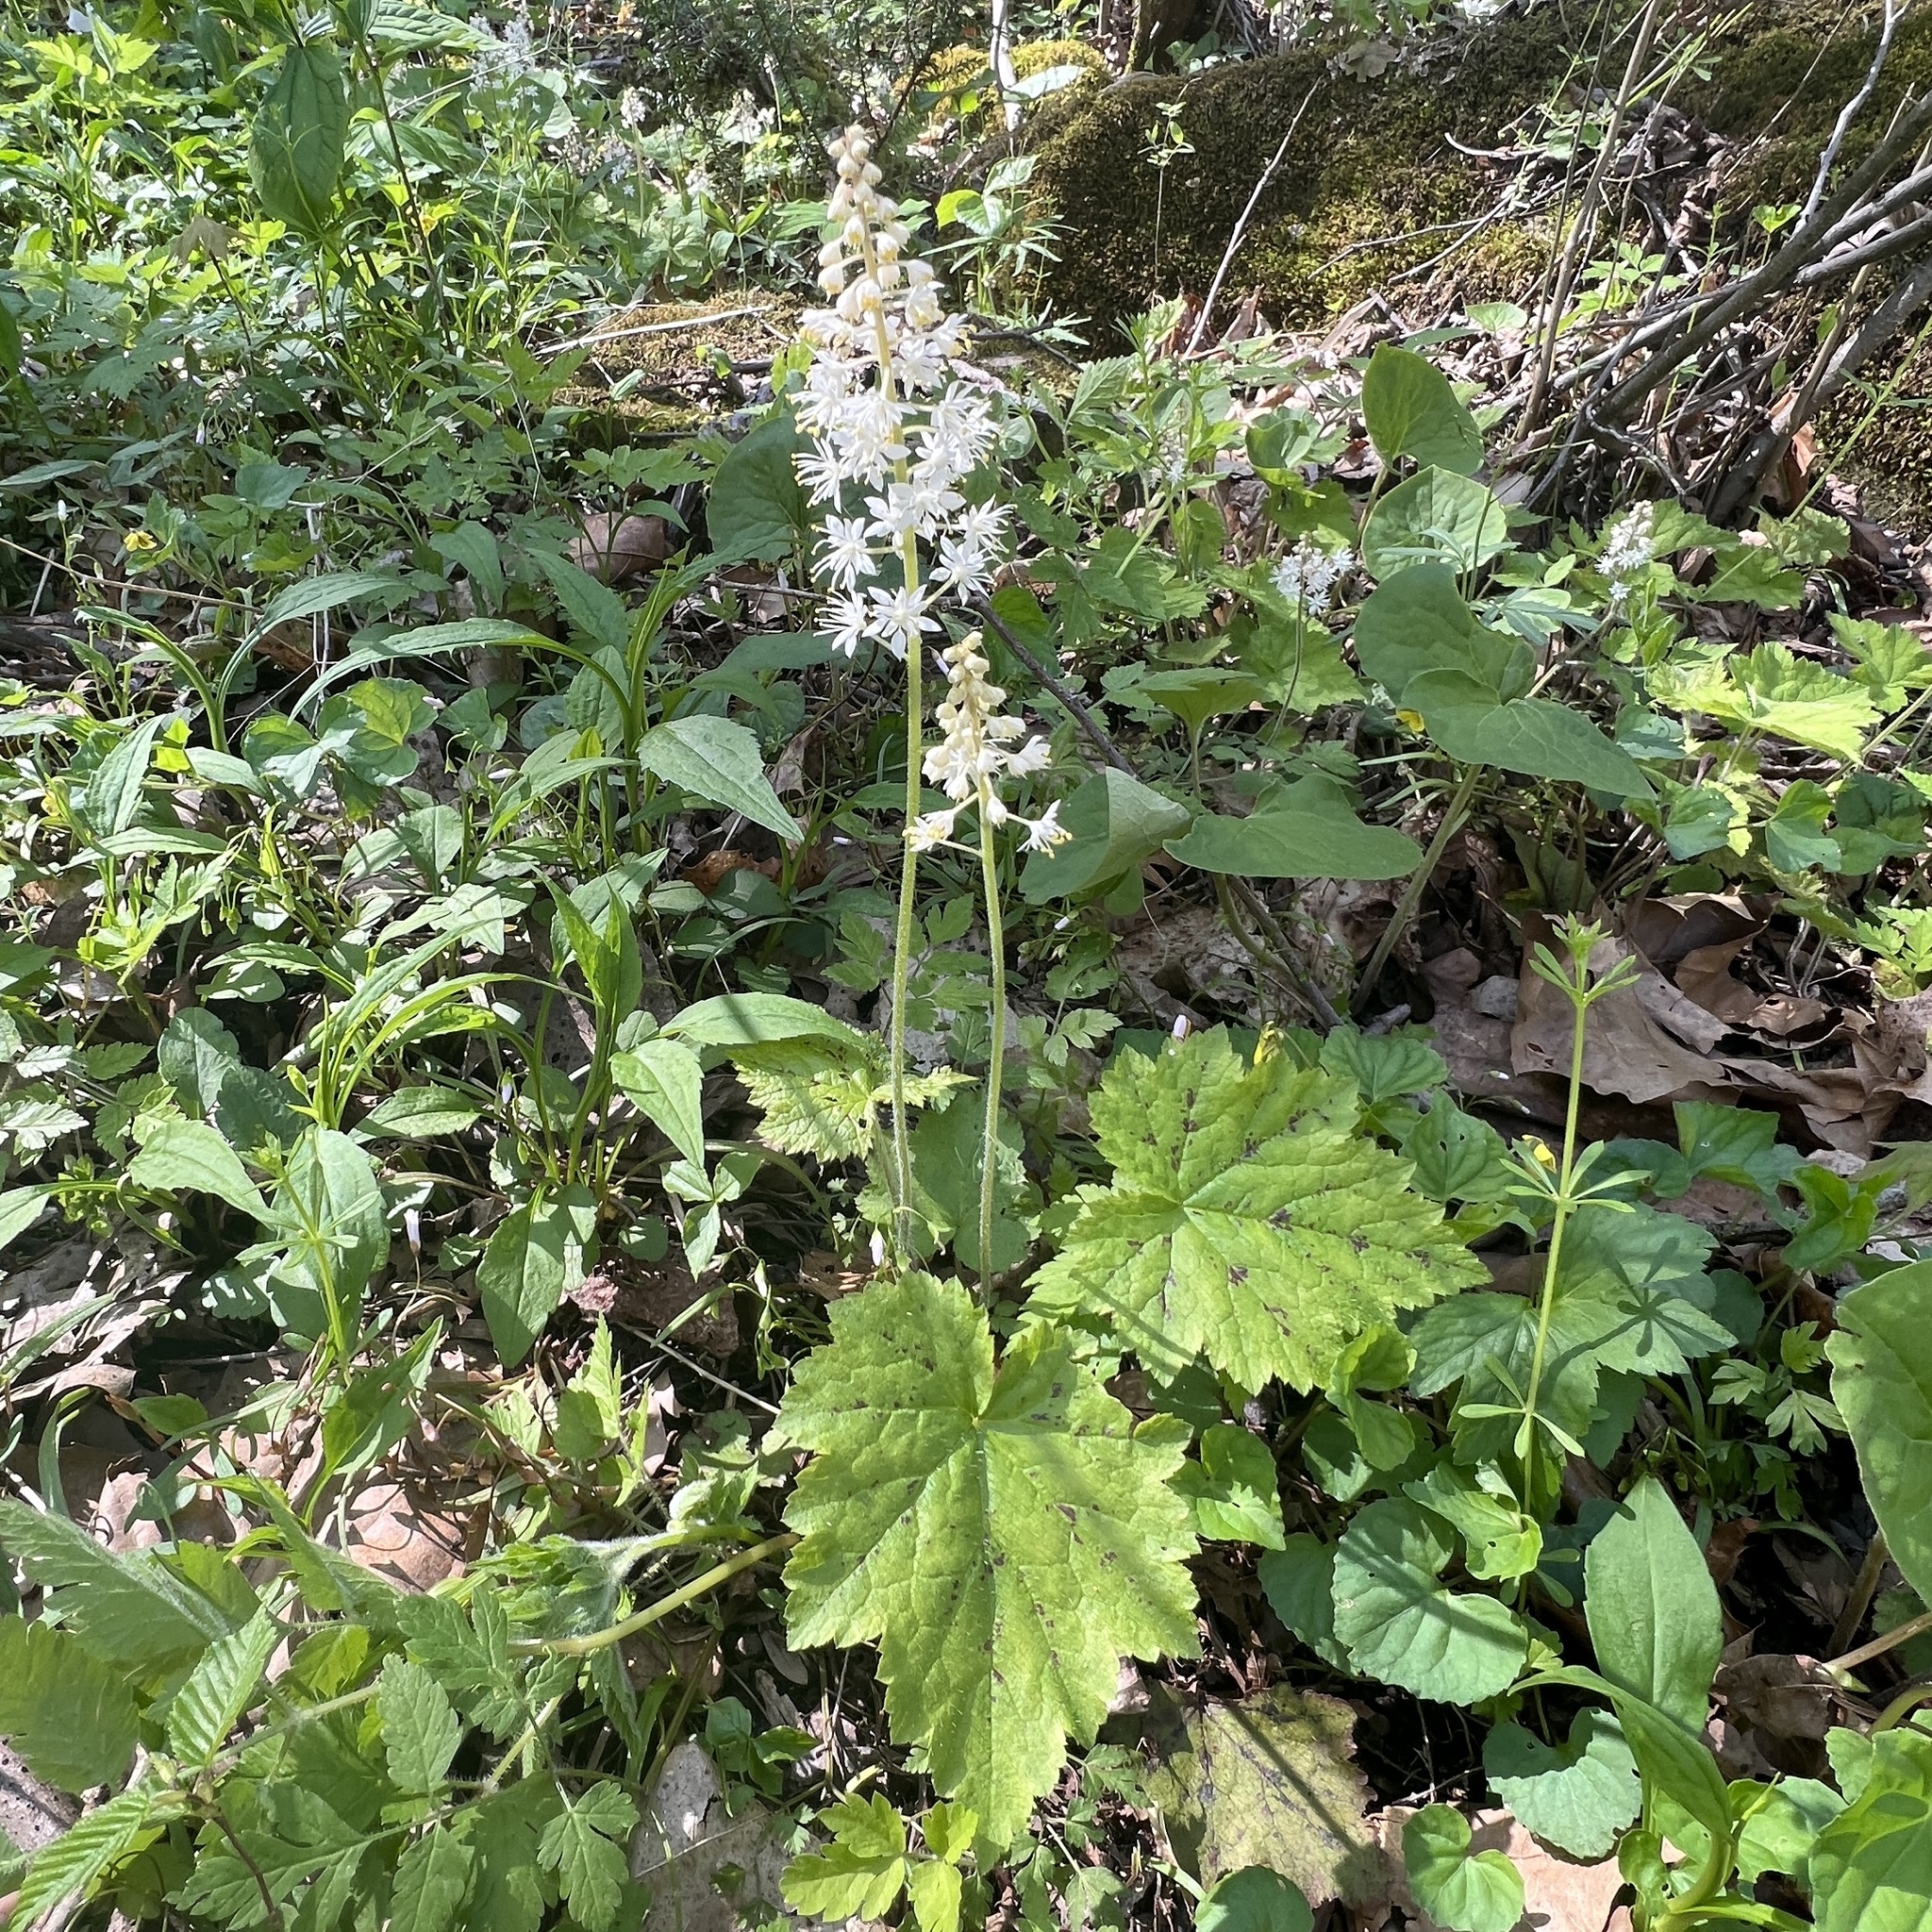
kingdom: Plantae
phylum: Tracheophyta
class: Magnoliopsida
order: Saxifragales
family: Saxifragaceae
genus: Tiarella
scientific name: Tiarella stolonifera
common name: Stoloniferous foamflower
